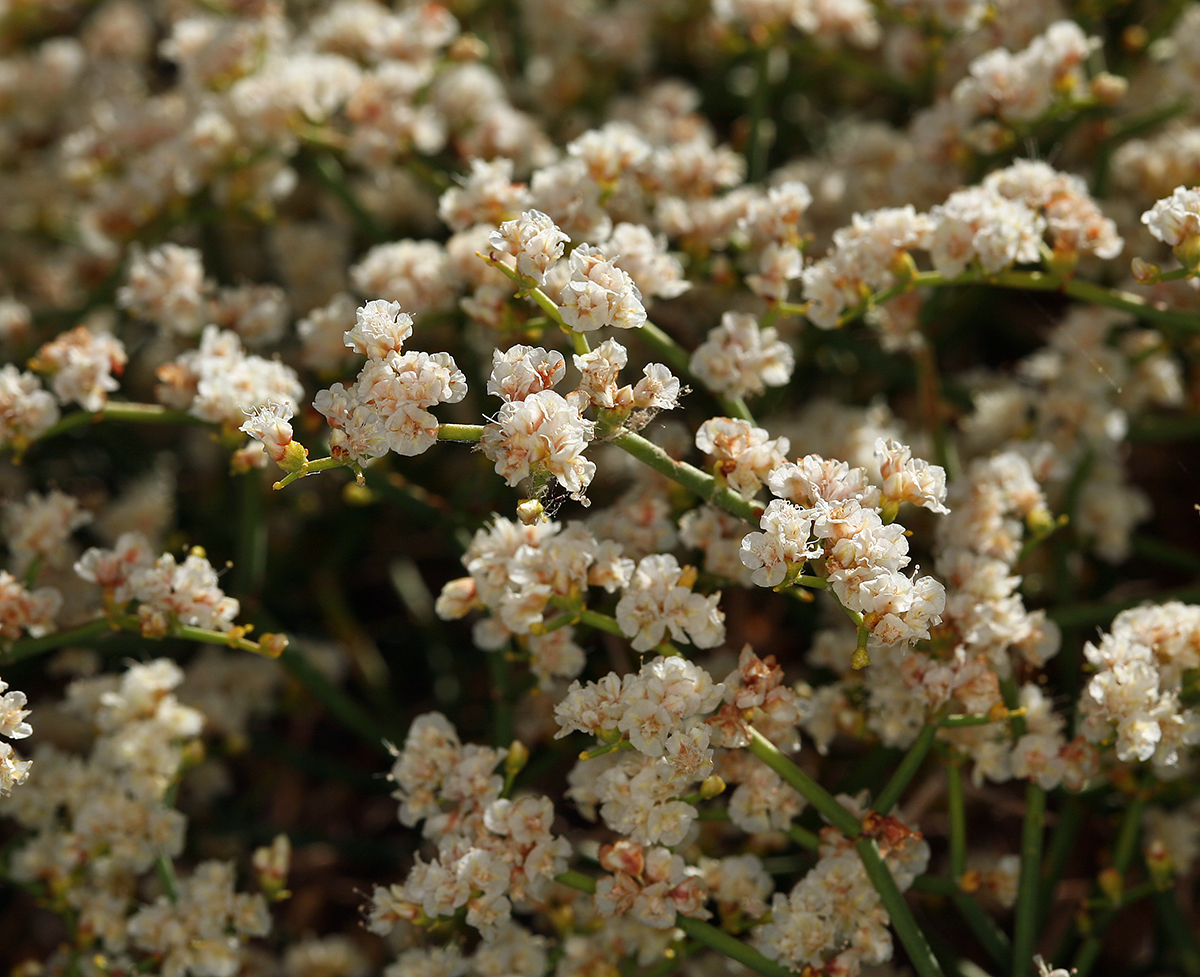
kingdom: Plantae
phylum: Tracheophyta
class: Magnoliopsida
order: Caryophyllales
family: Polygonaceae
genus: Eriogonum
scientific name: Eriogonum heermannii
